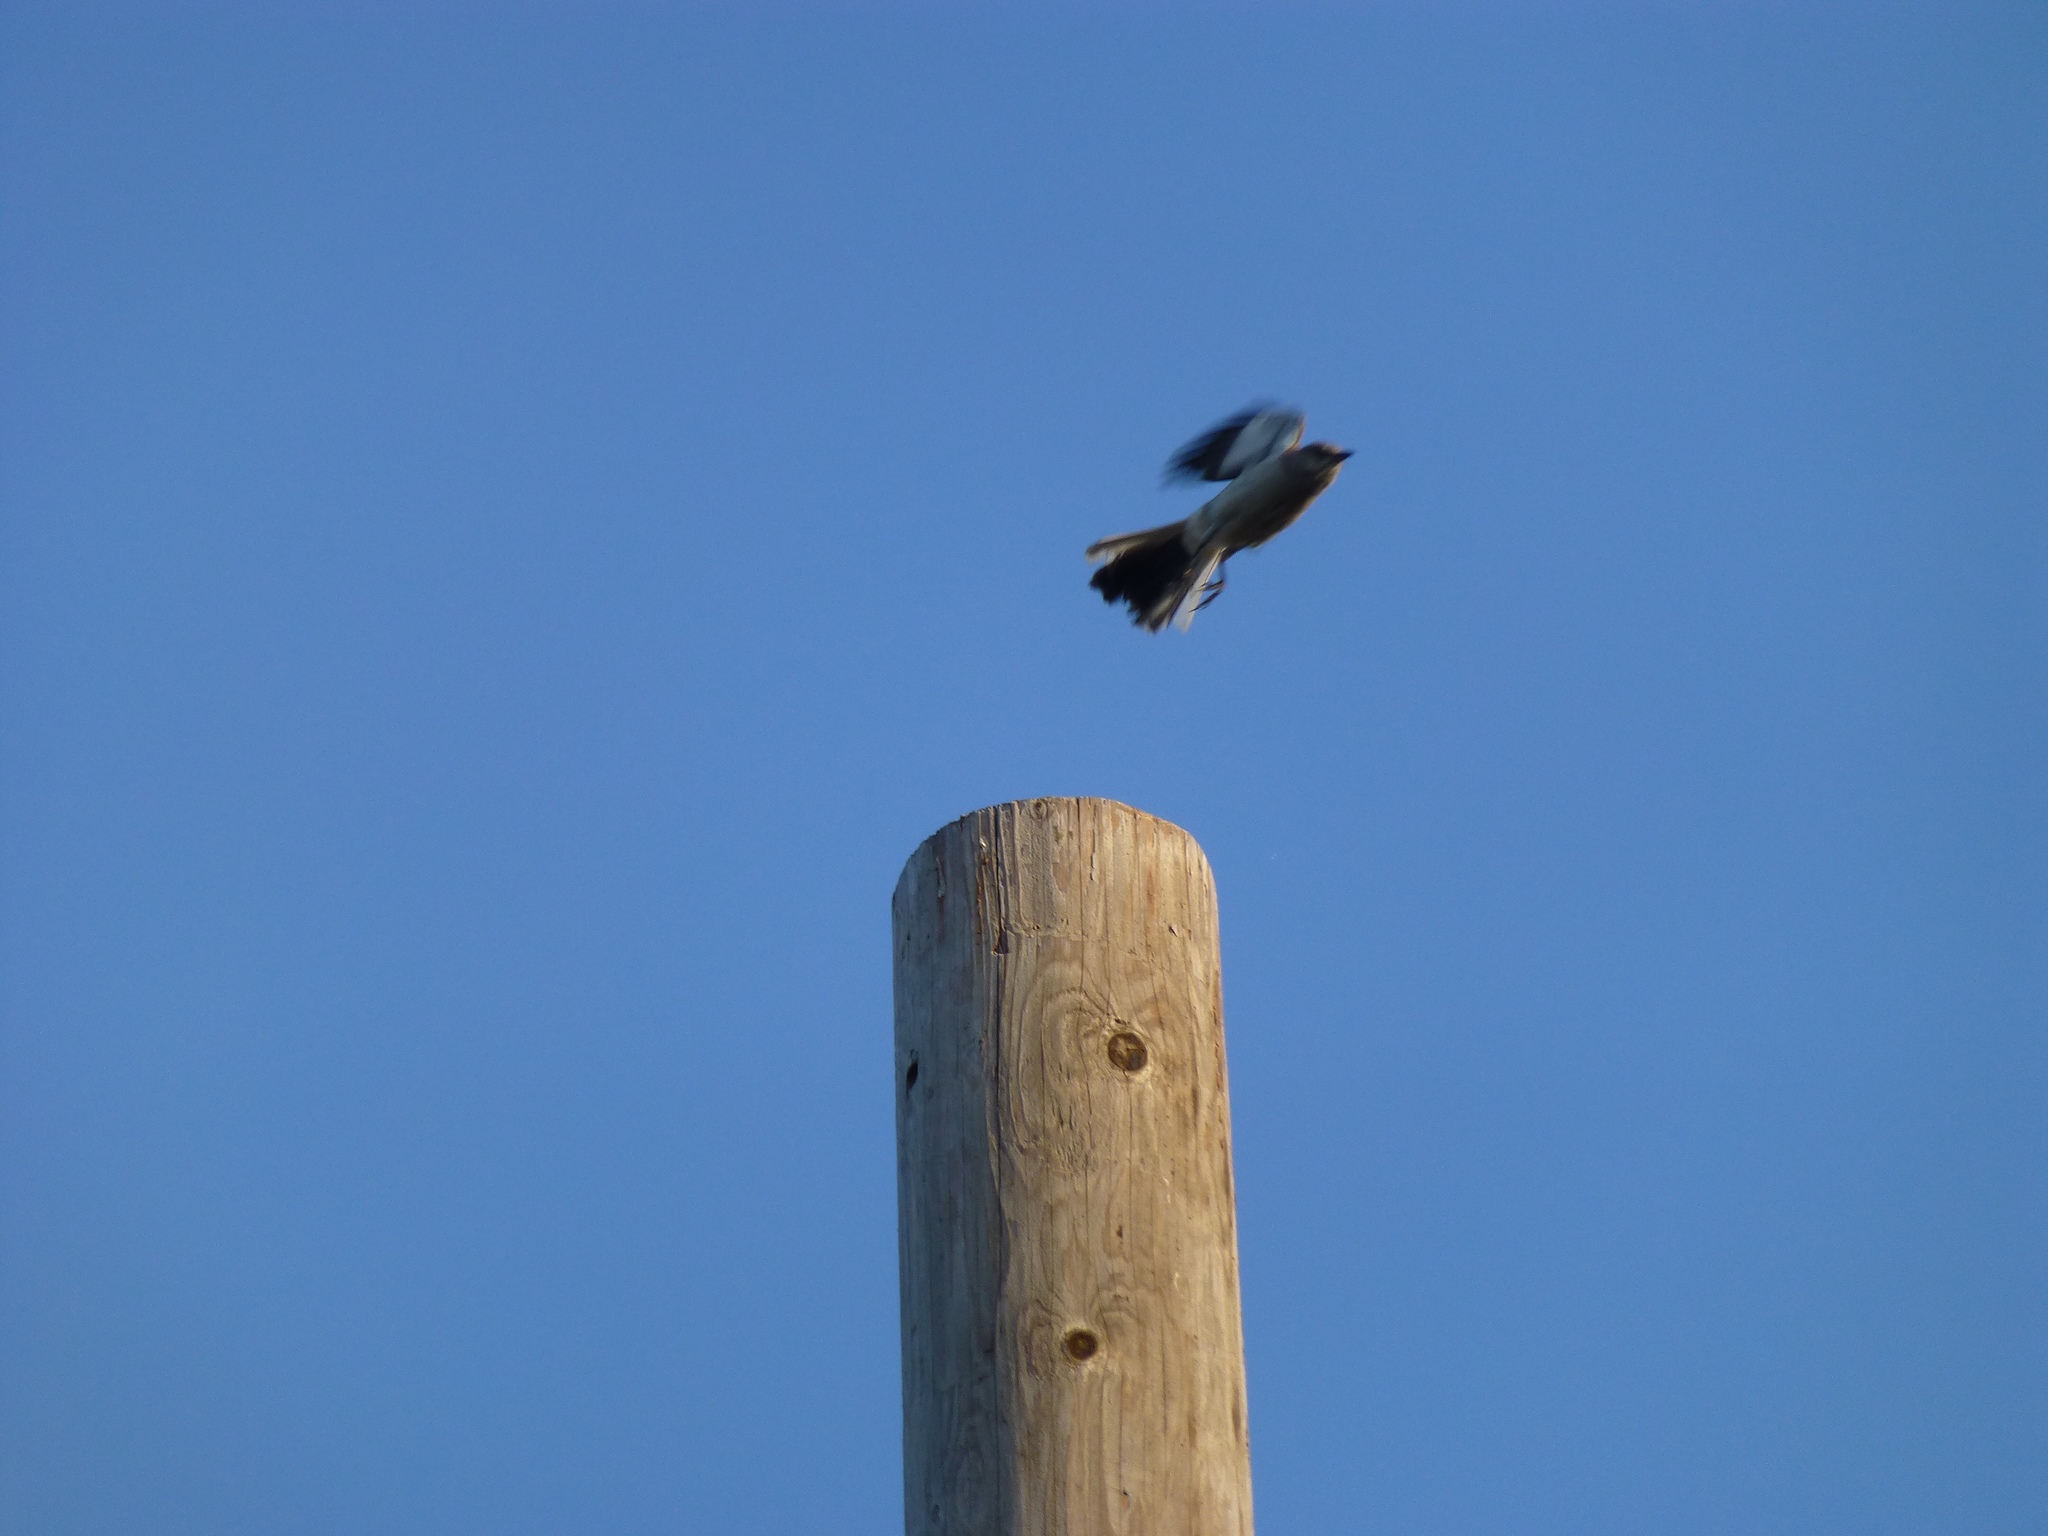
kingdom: Animalia
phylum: Chordata
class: Aves
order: Passeriformes
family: Mimidae
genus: Mimus
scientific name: Mimus polyglottos
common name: Northern mockingbird
